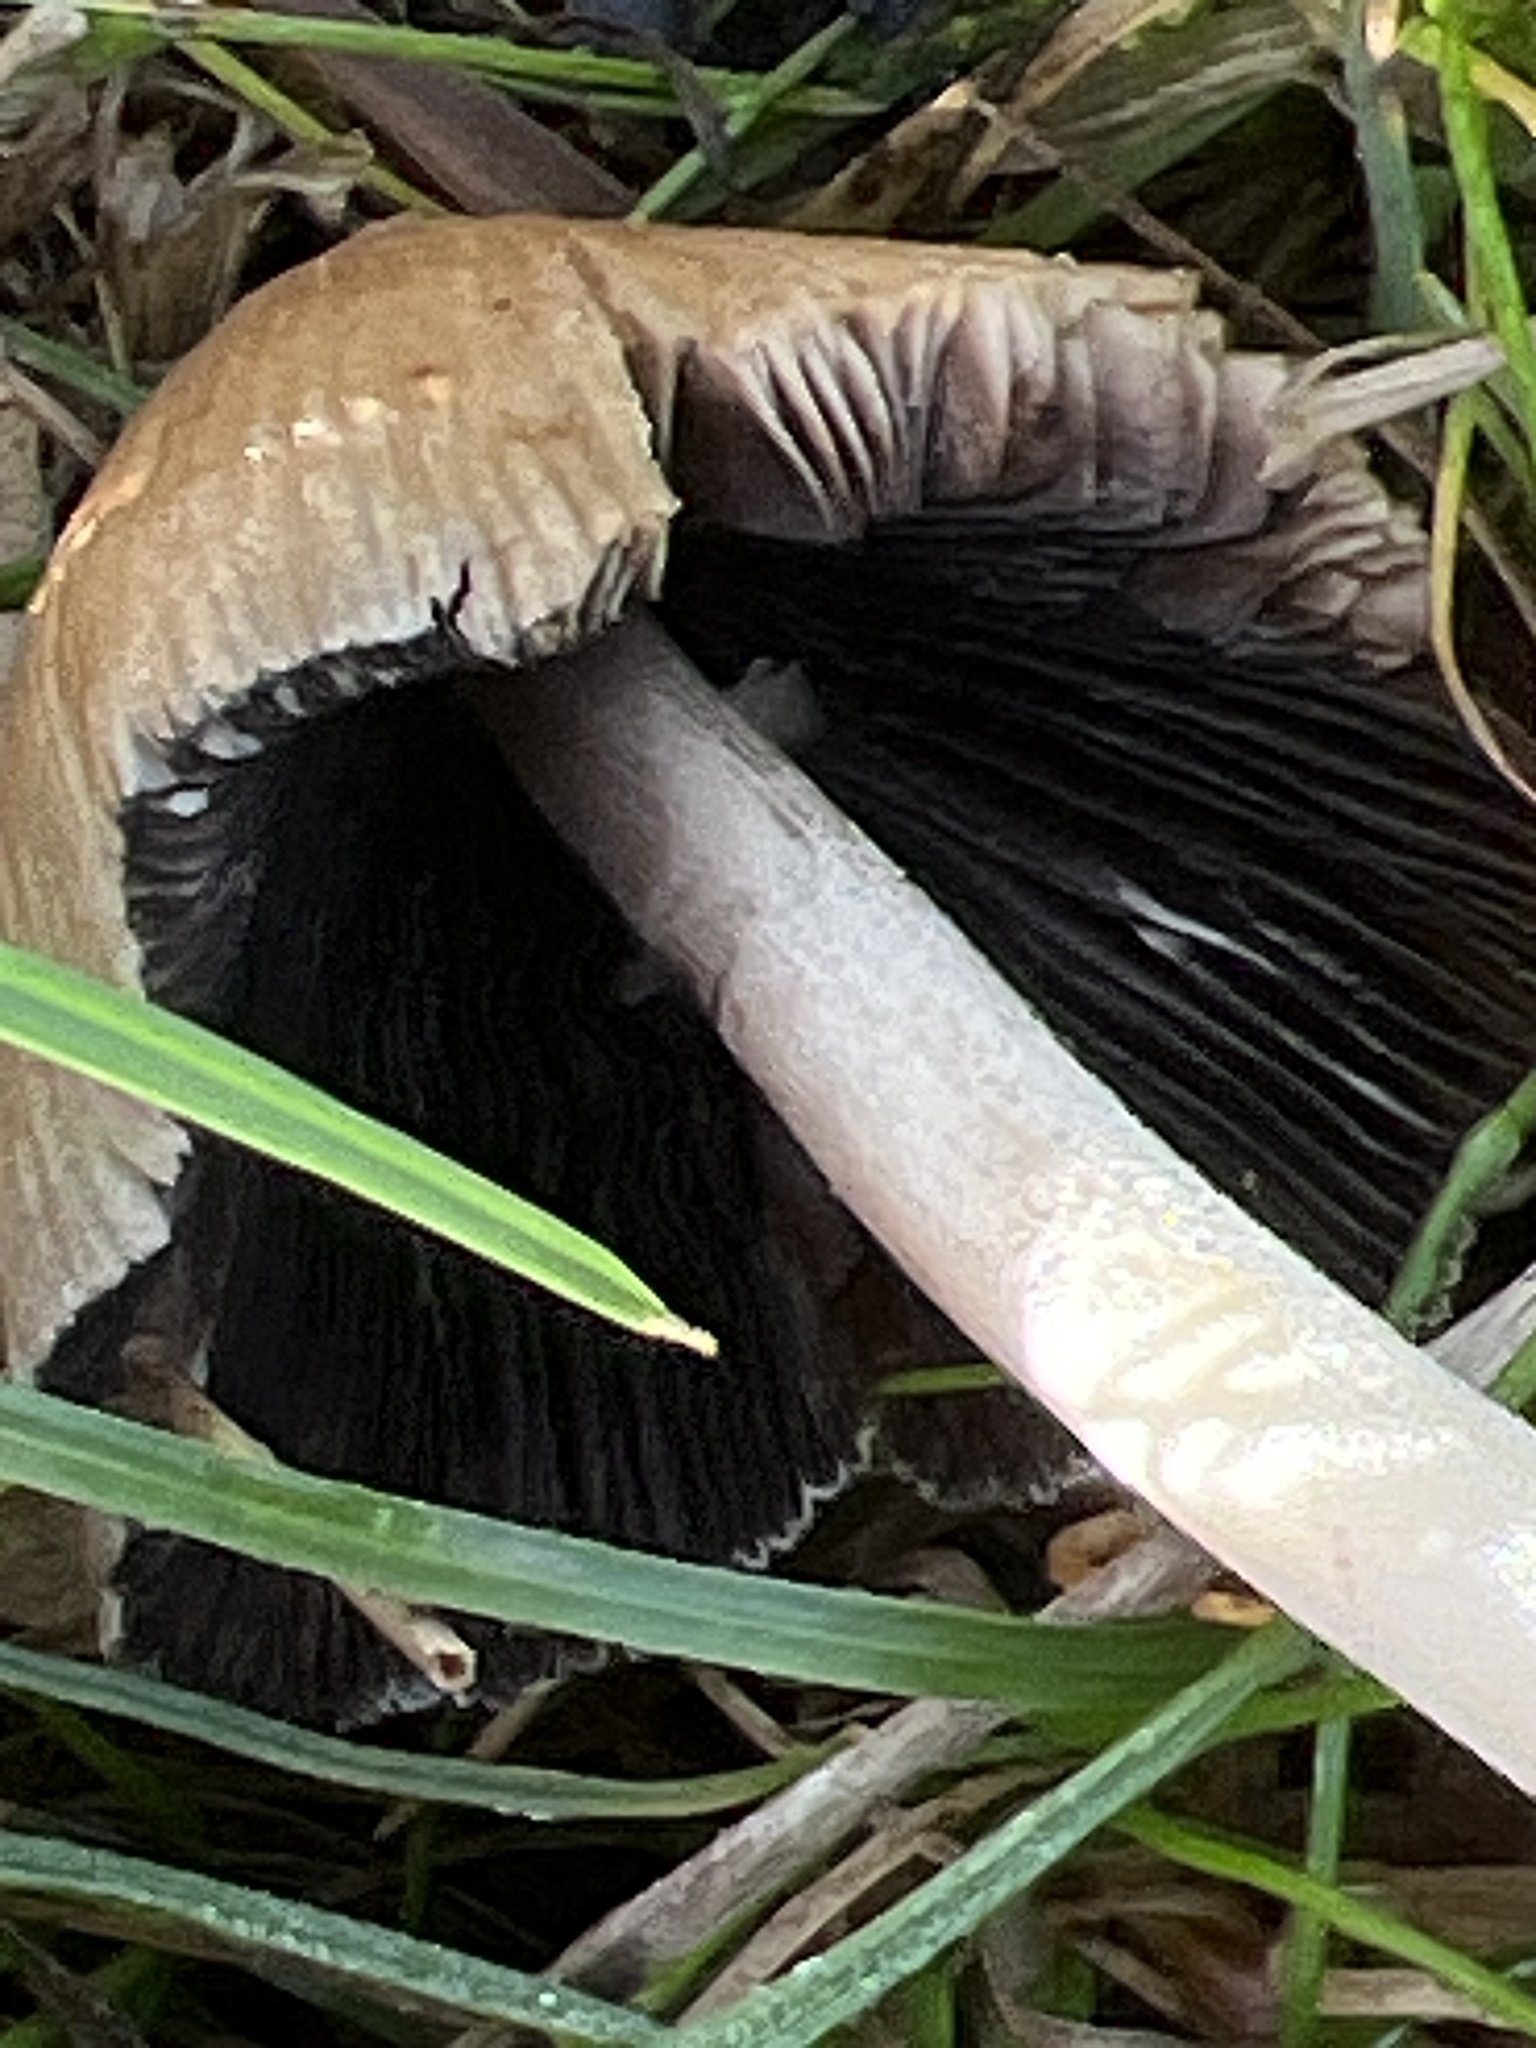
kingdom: Fungi
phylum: Basidiomycota
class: Agaricomycetes
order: Agaricales
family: Psathyrellaceae
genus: Coprinellus
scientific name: Coprinellus micaceus
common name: Glistening ink-cap
